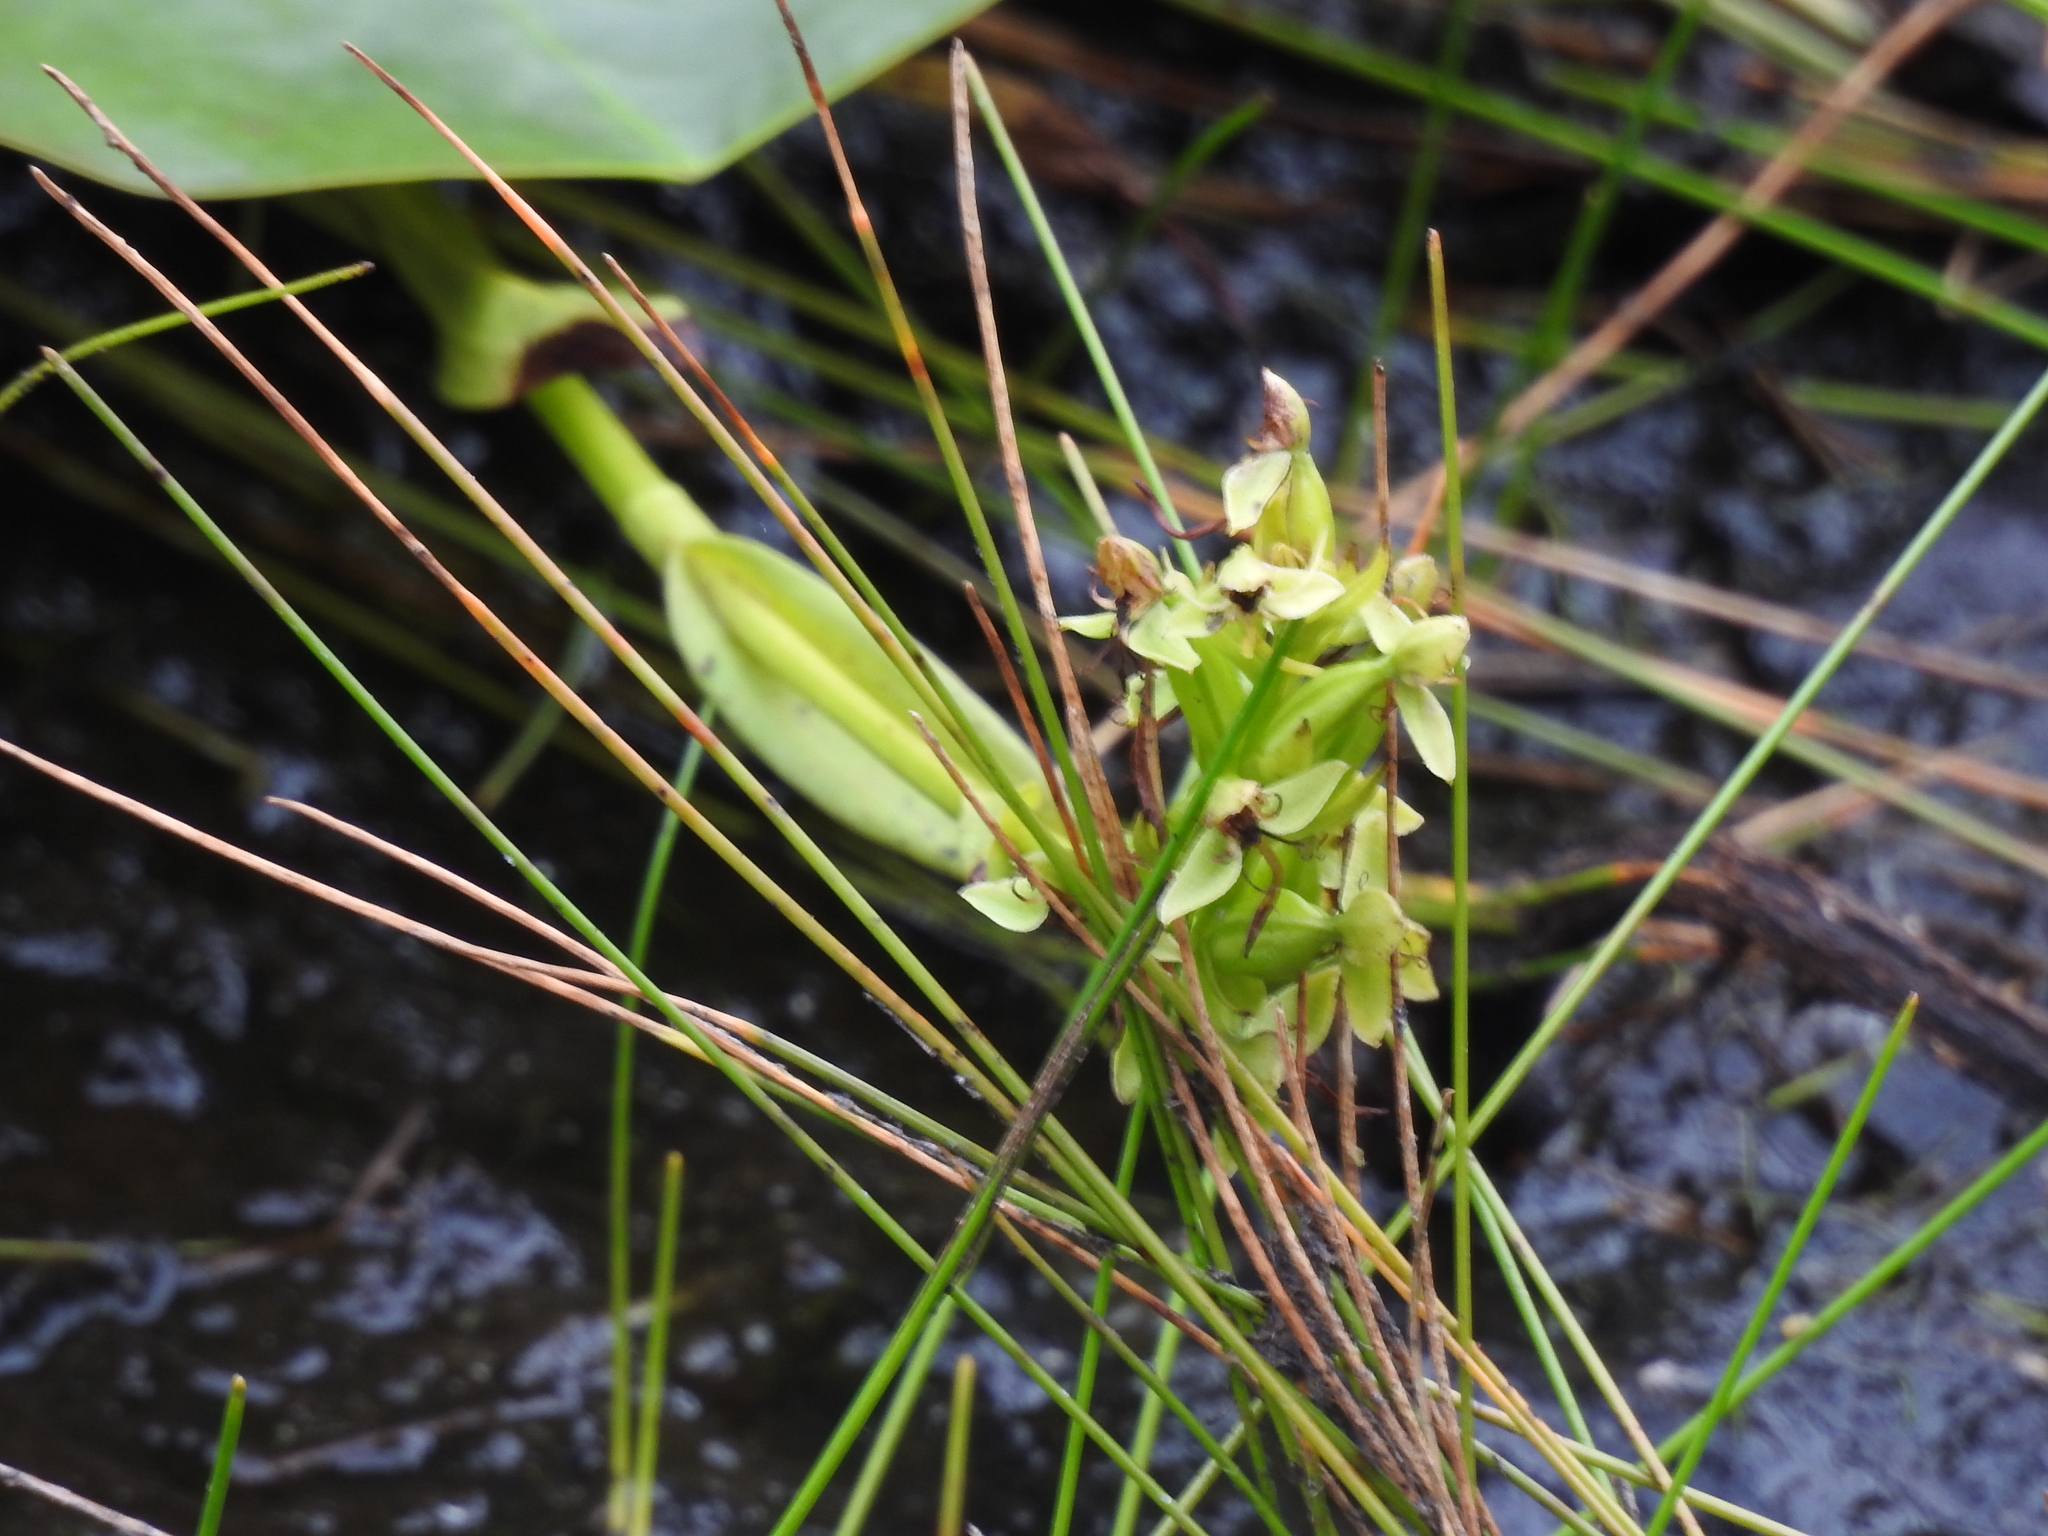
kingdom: Plantae
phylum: Tracheophyta
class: Liliopsida
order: Asparagales
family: Orchidaceae
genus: Habenaria
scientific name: Habenaria repens
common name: Water orchid
